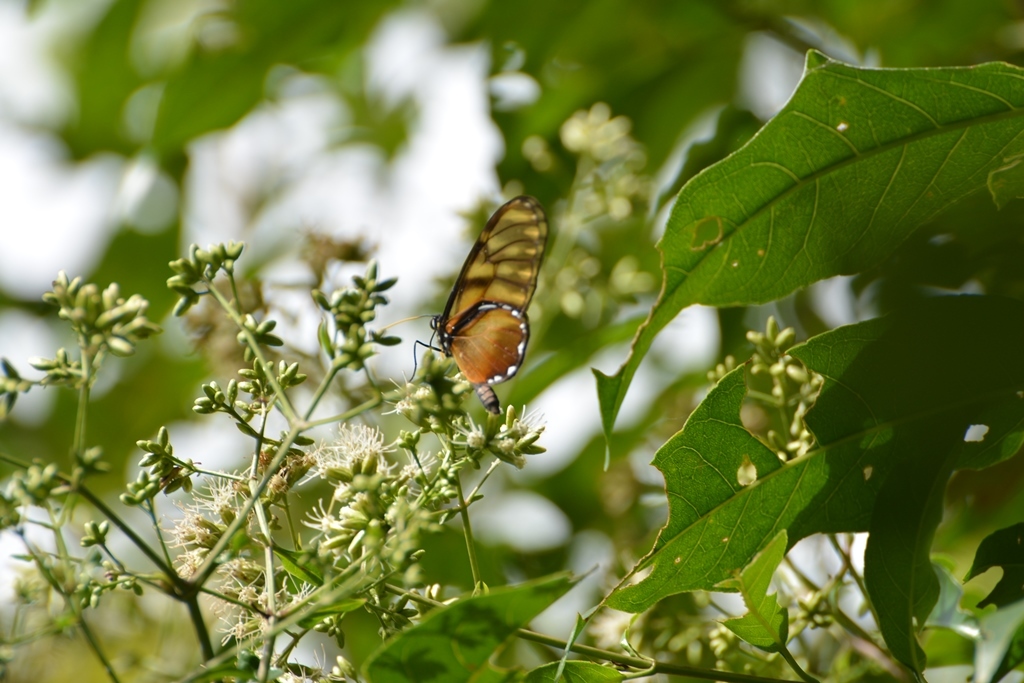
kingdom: Animalia
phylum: Arthropoda
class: Insecta
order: Lepidoptera
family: Nymphalidae
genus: Dircenna
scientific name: Dircenna
